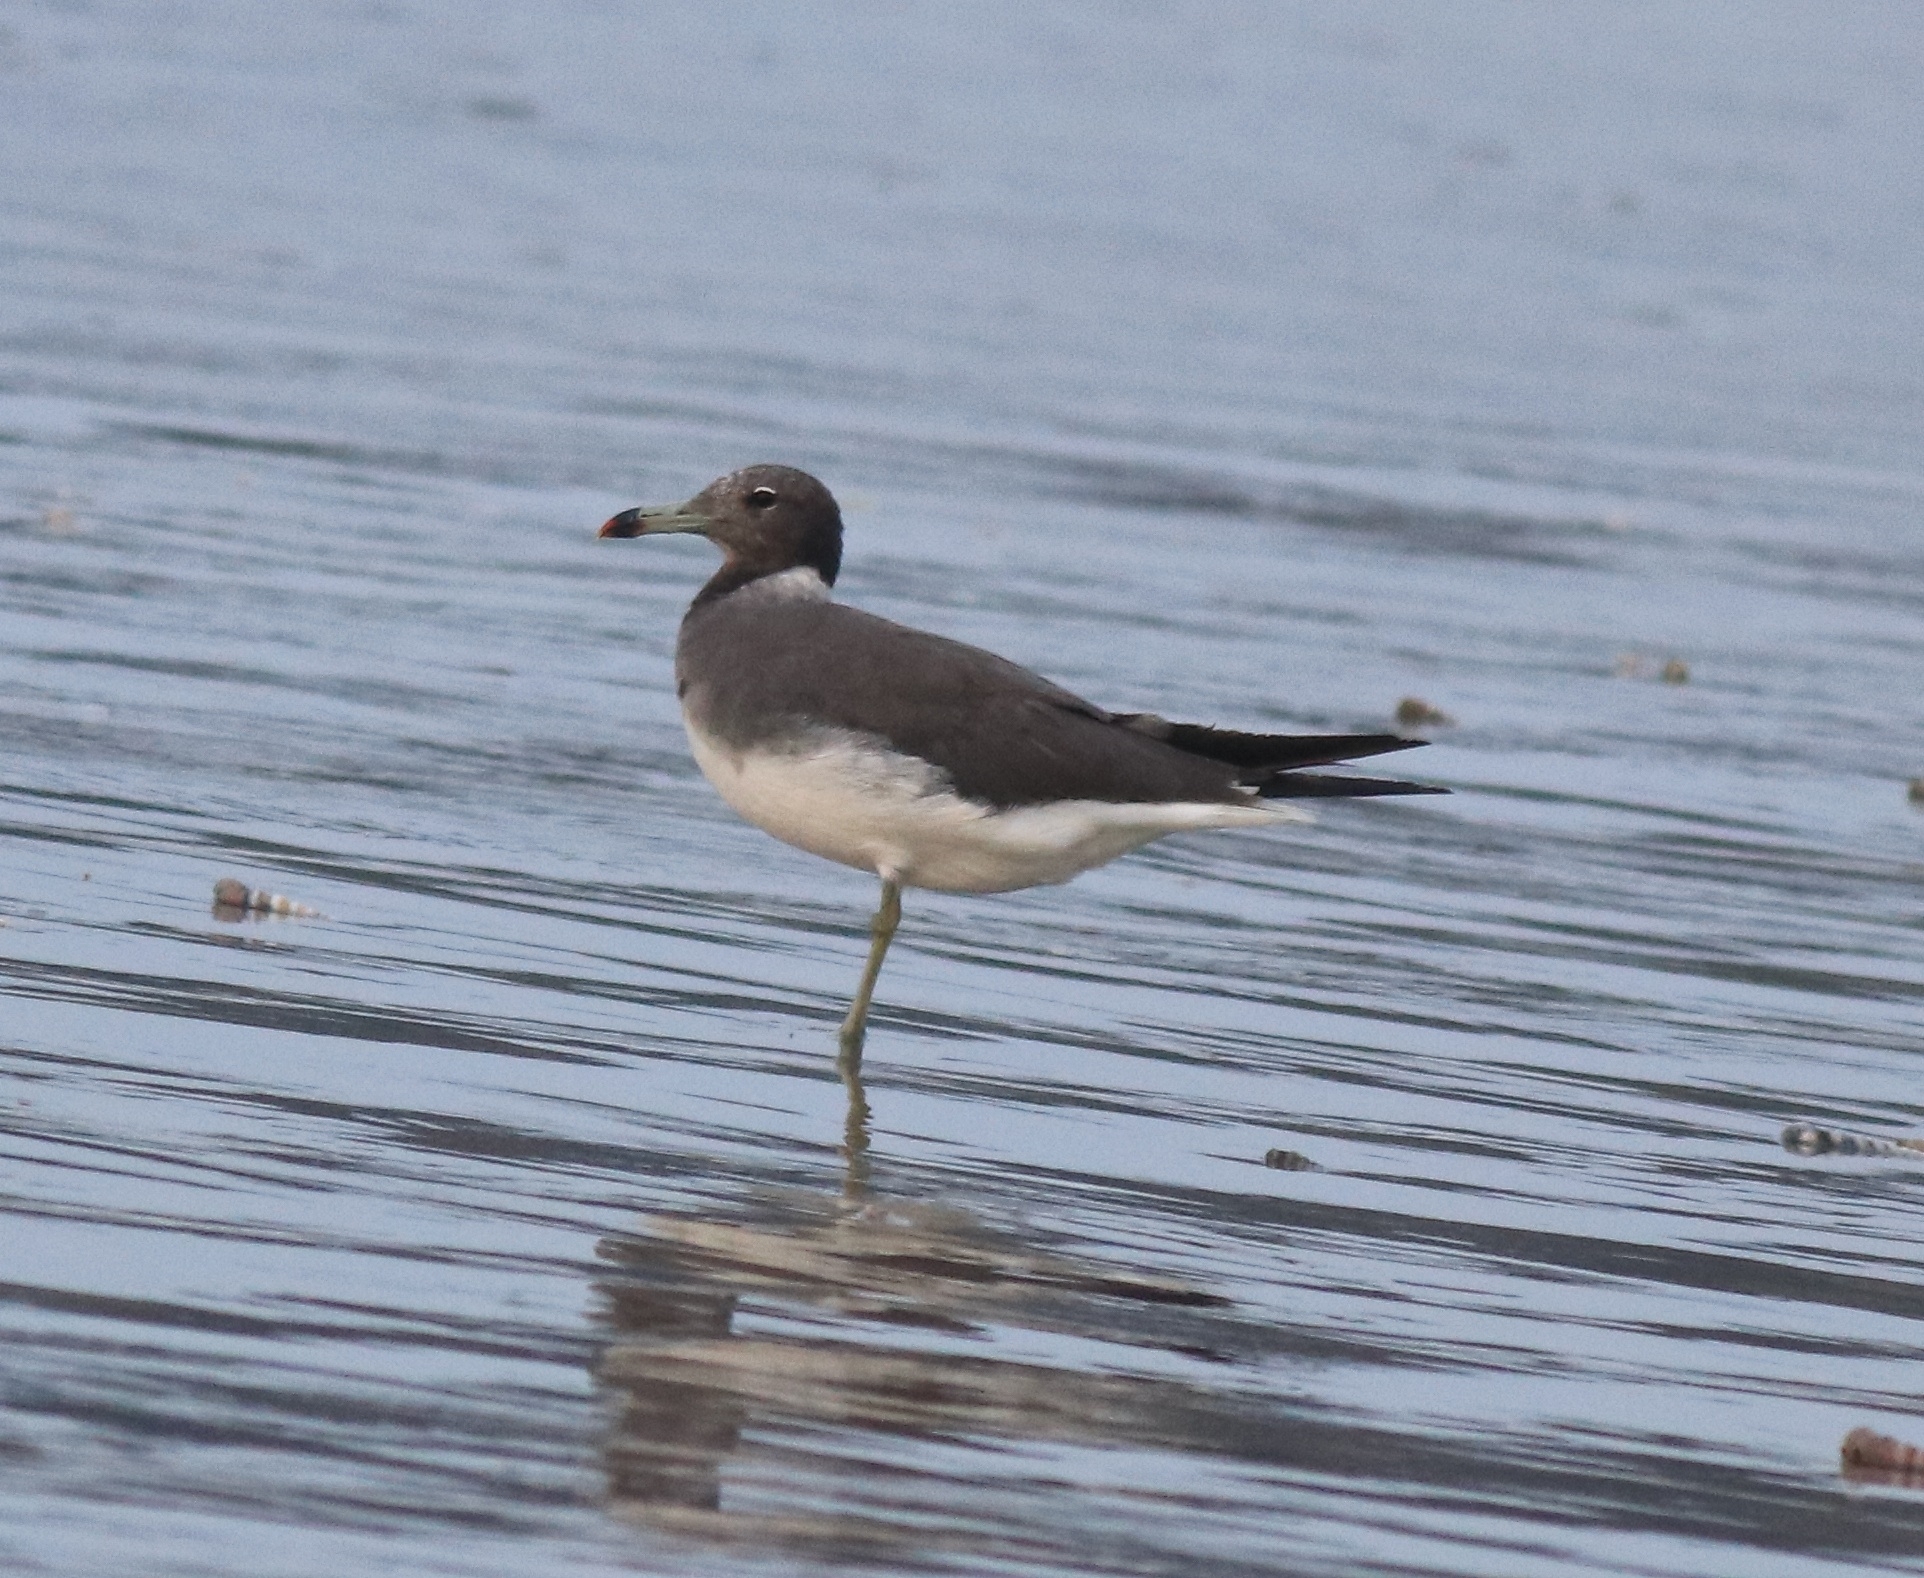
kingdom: Animalia
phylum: Chordata
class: Aves
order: Charadriiformes
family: Laridae
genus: Ichthyaetus
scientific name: Ichthyaetus hemprichii
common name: Sooty gull
